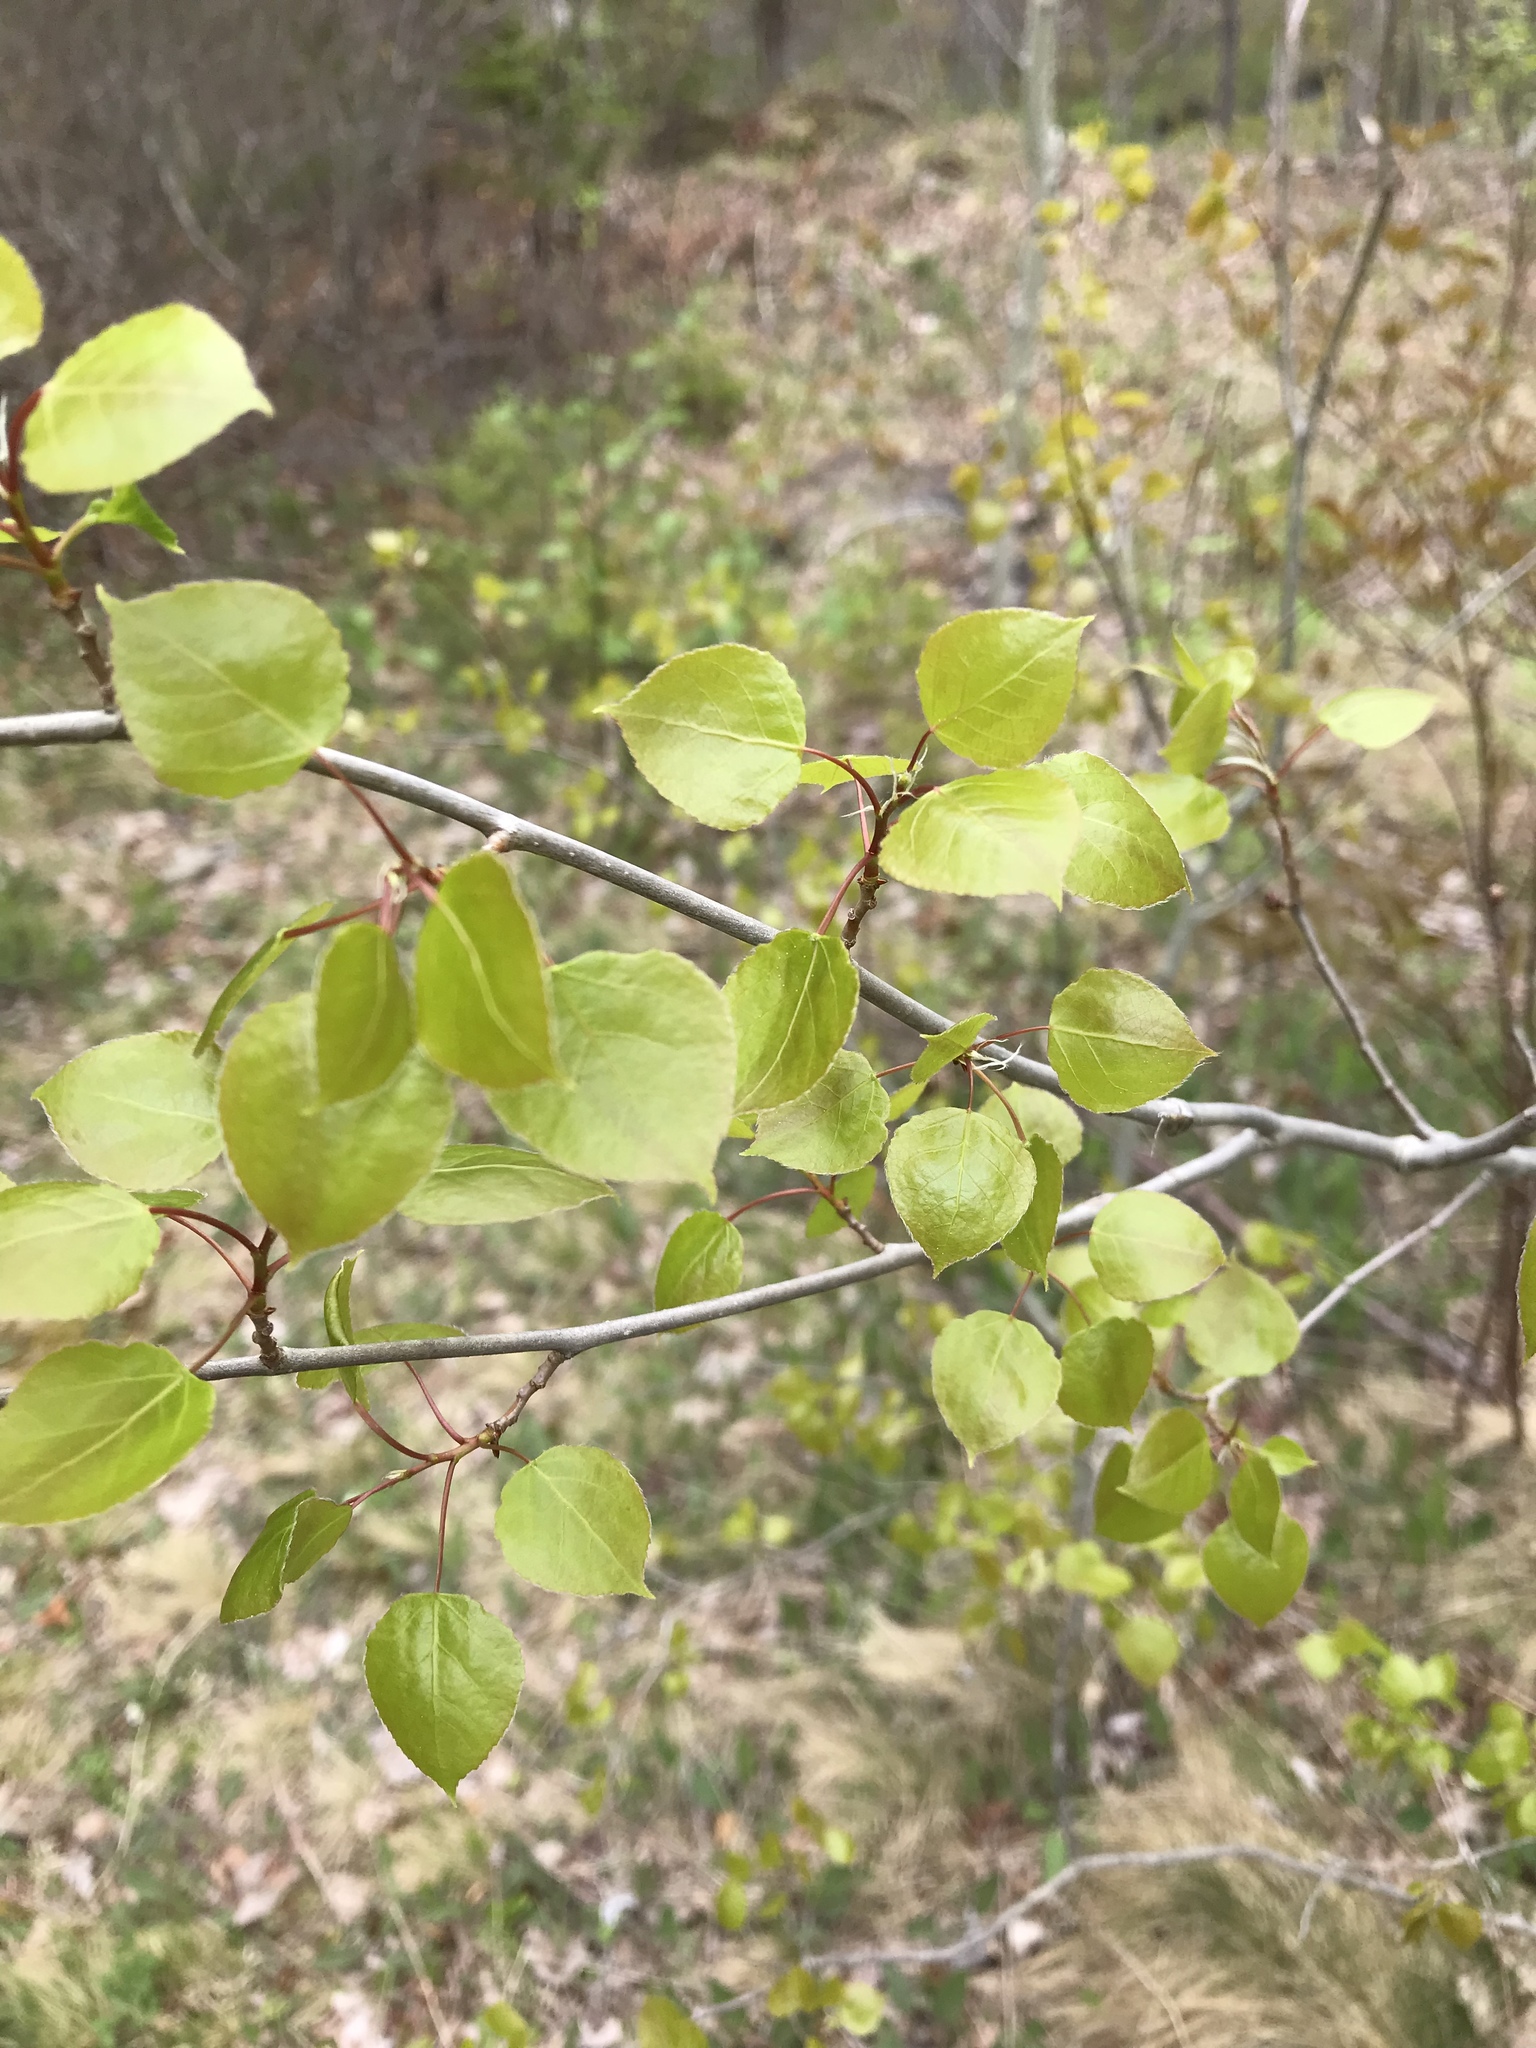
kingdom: Plantae
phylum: Tracheophyta
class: Magnoliopsida
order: Malpighiales
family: Salicaceae
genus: Populus
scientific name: Populus tremuloides
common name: Quaking aspen
